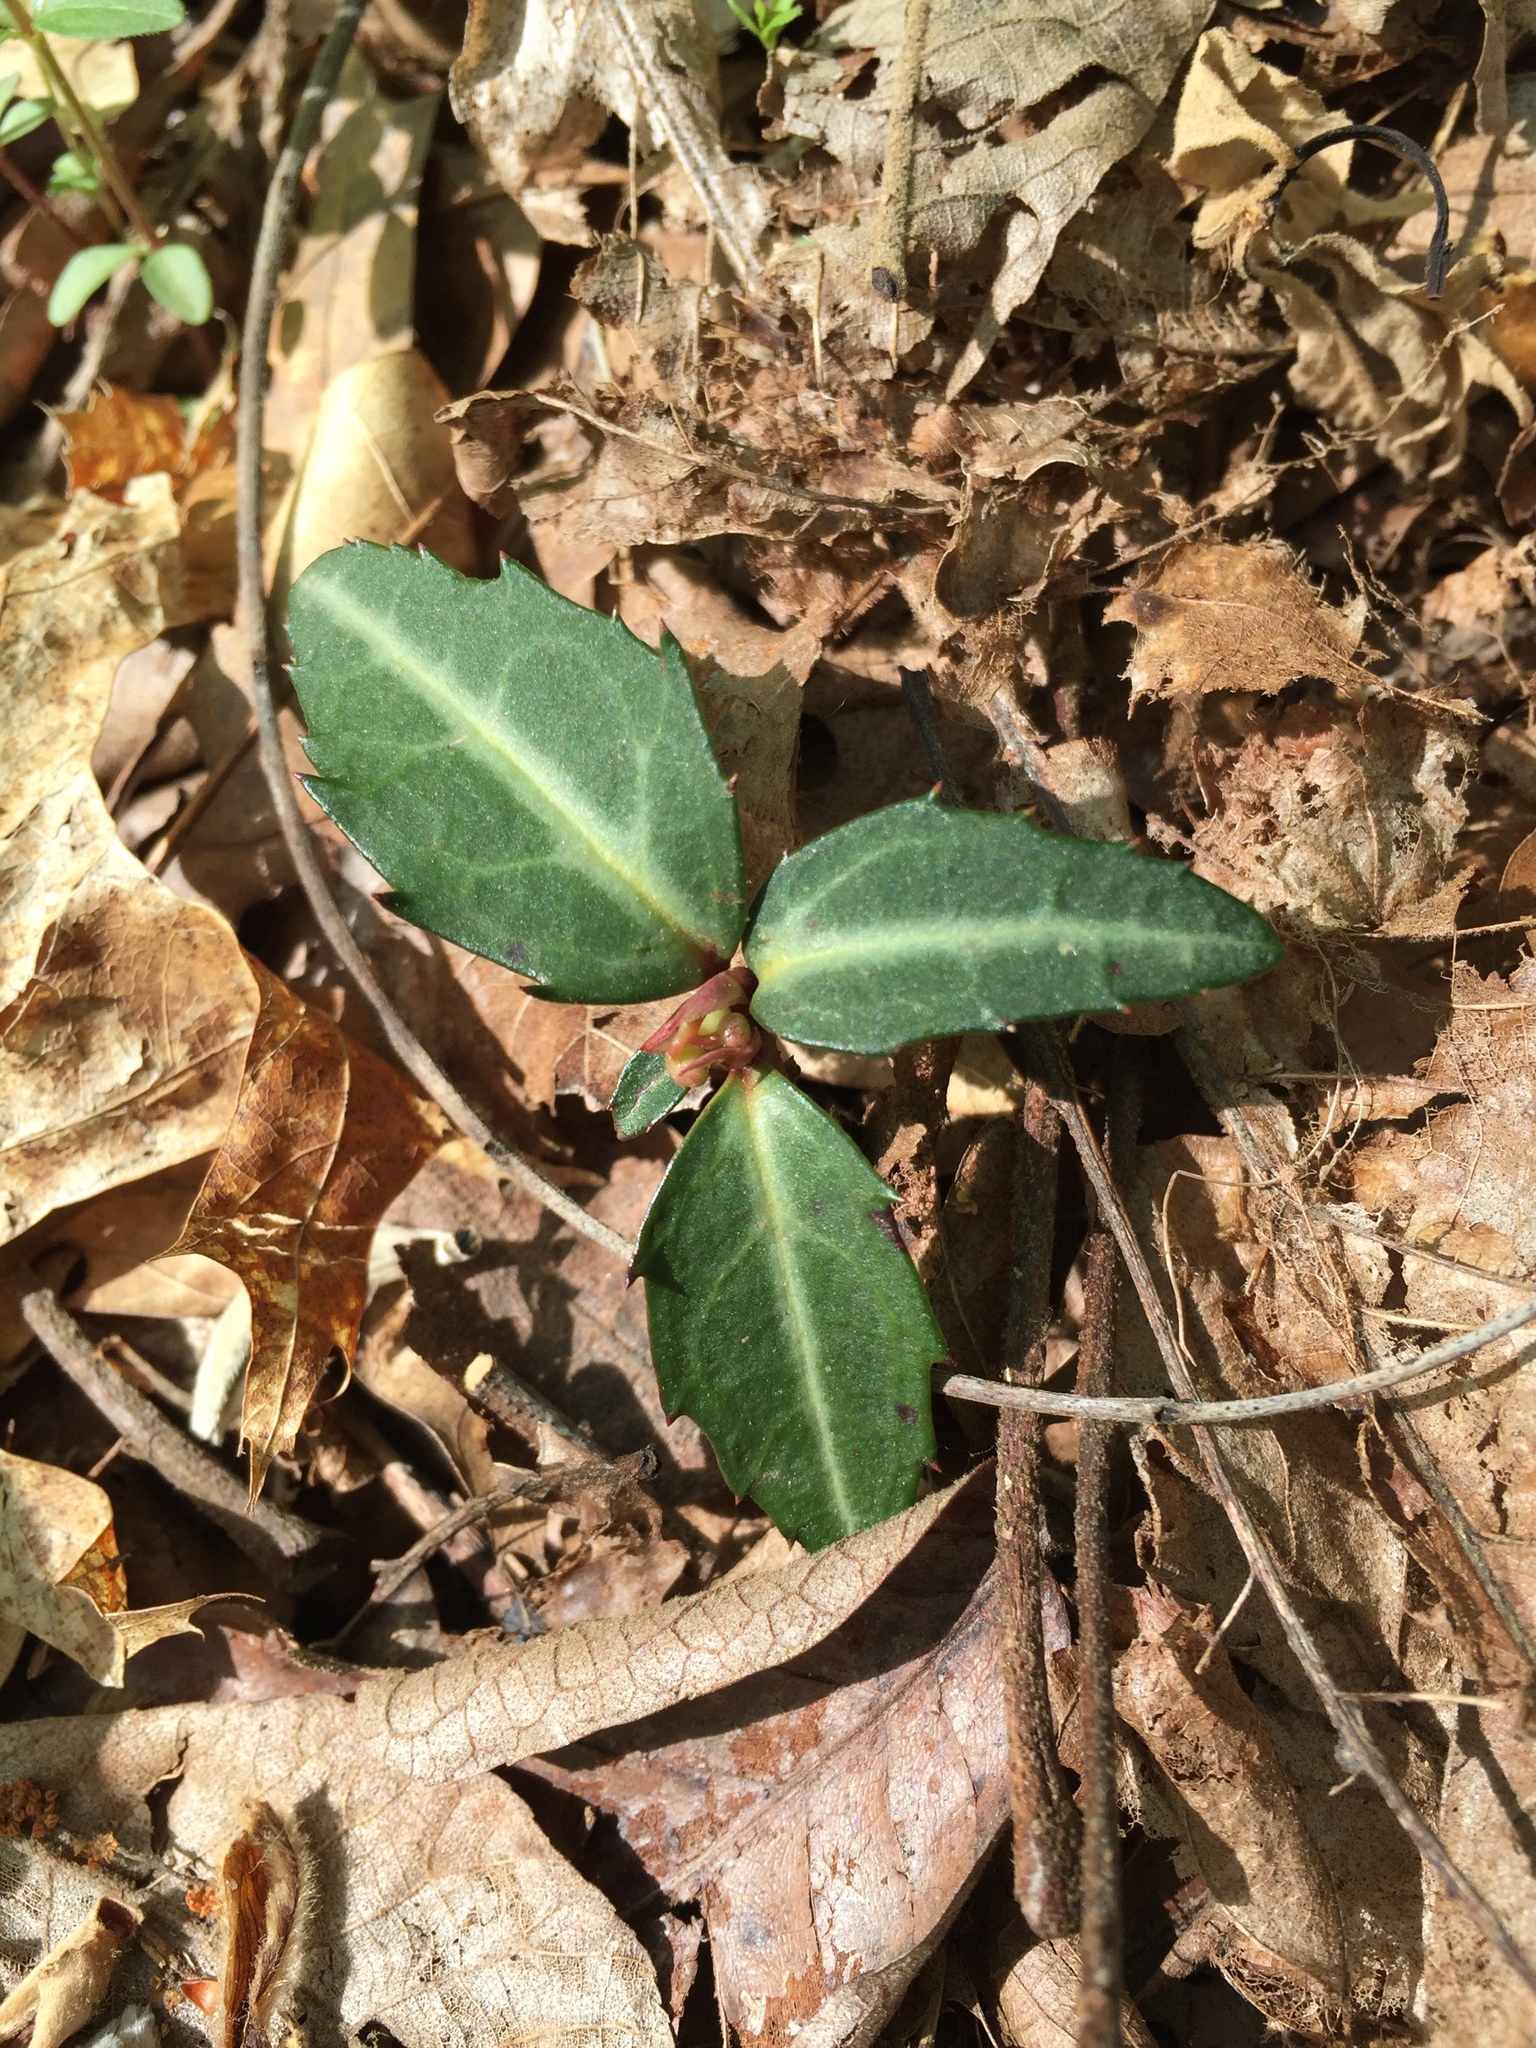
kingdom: Plantae
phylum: Tracheophyta
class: Magnoliopsida
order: Ericales
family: Ericaceae
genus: Chimaphila
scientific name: Chimaphila maculata
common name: Spotted pipsissewa
